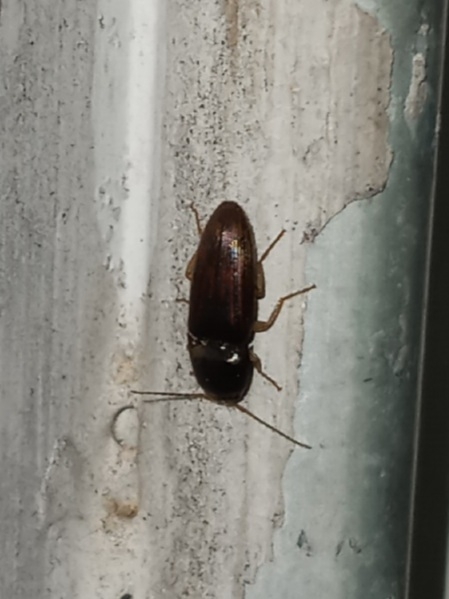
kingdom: Animalia
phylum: Arthropoda
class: Insecta
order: Coleoptera
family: Elateridae
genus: Monocrepidius
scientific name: Monocrepidius
